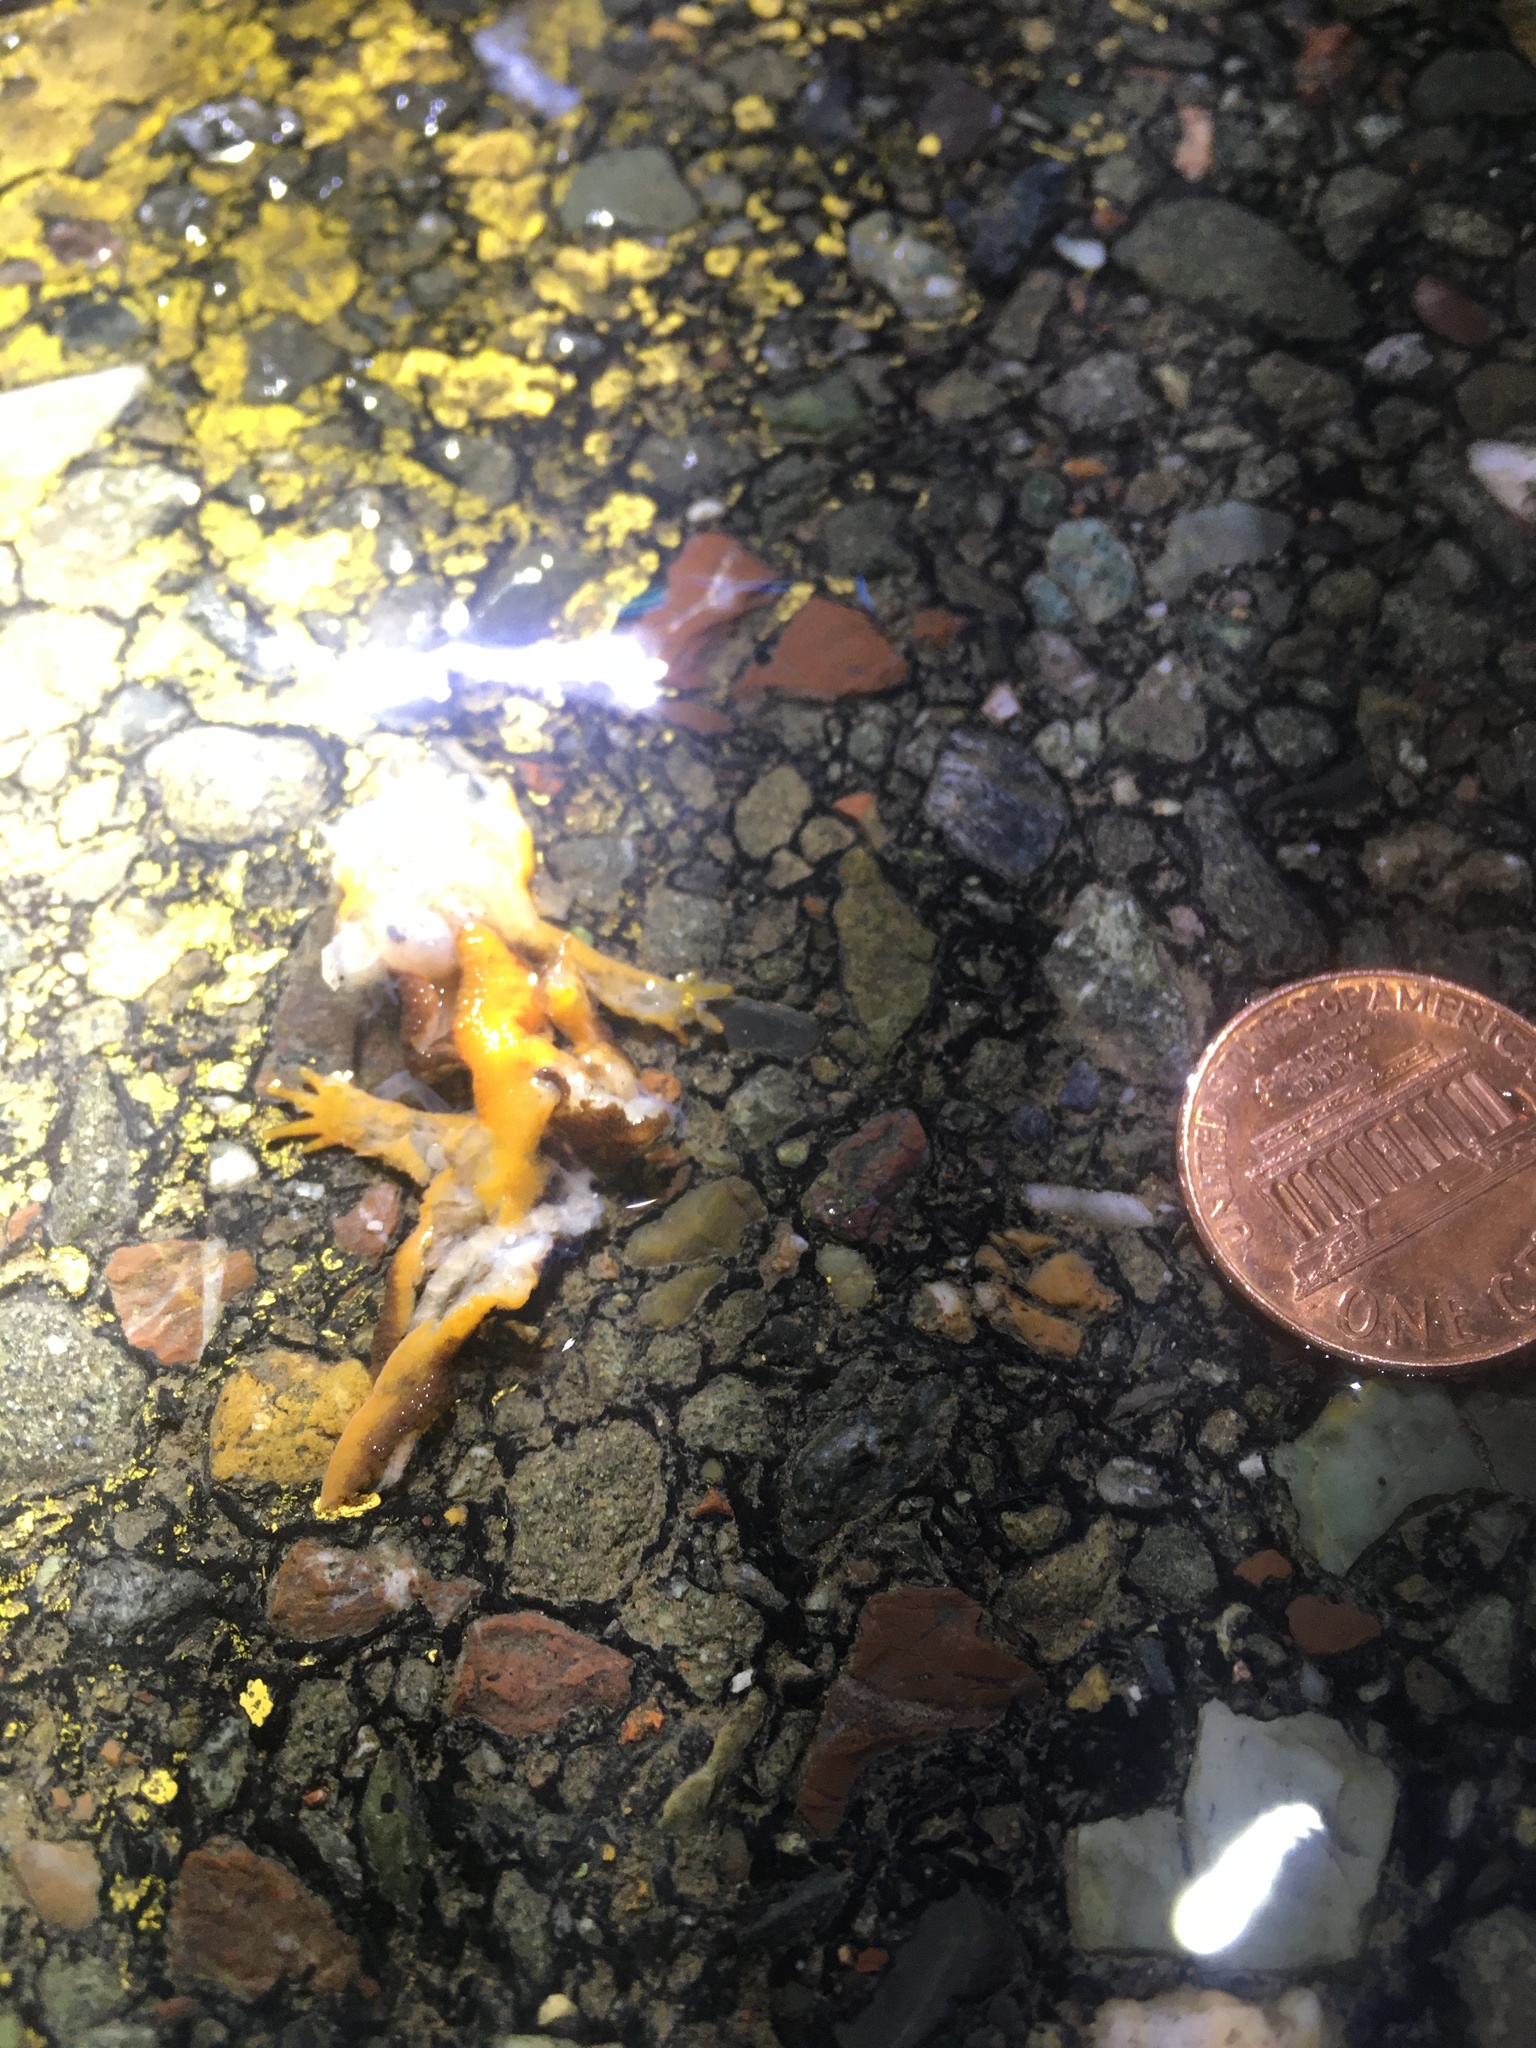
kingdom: Animalia
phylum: Chordata
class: Amphibia
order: Caudata
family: Salamandridae
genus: Taricha
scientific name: Taricha
